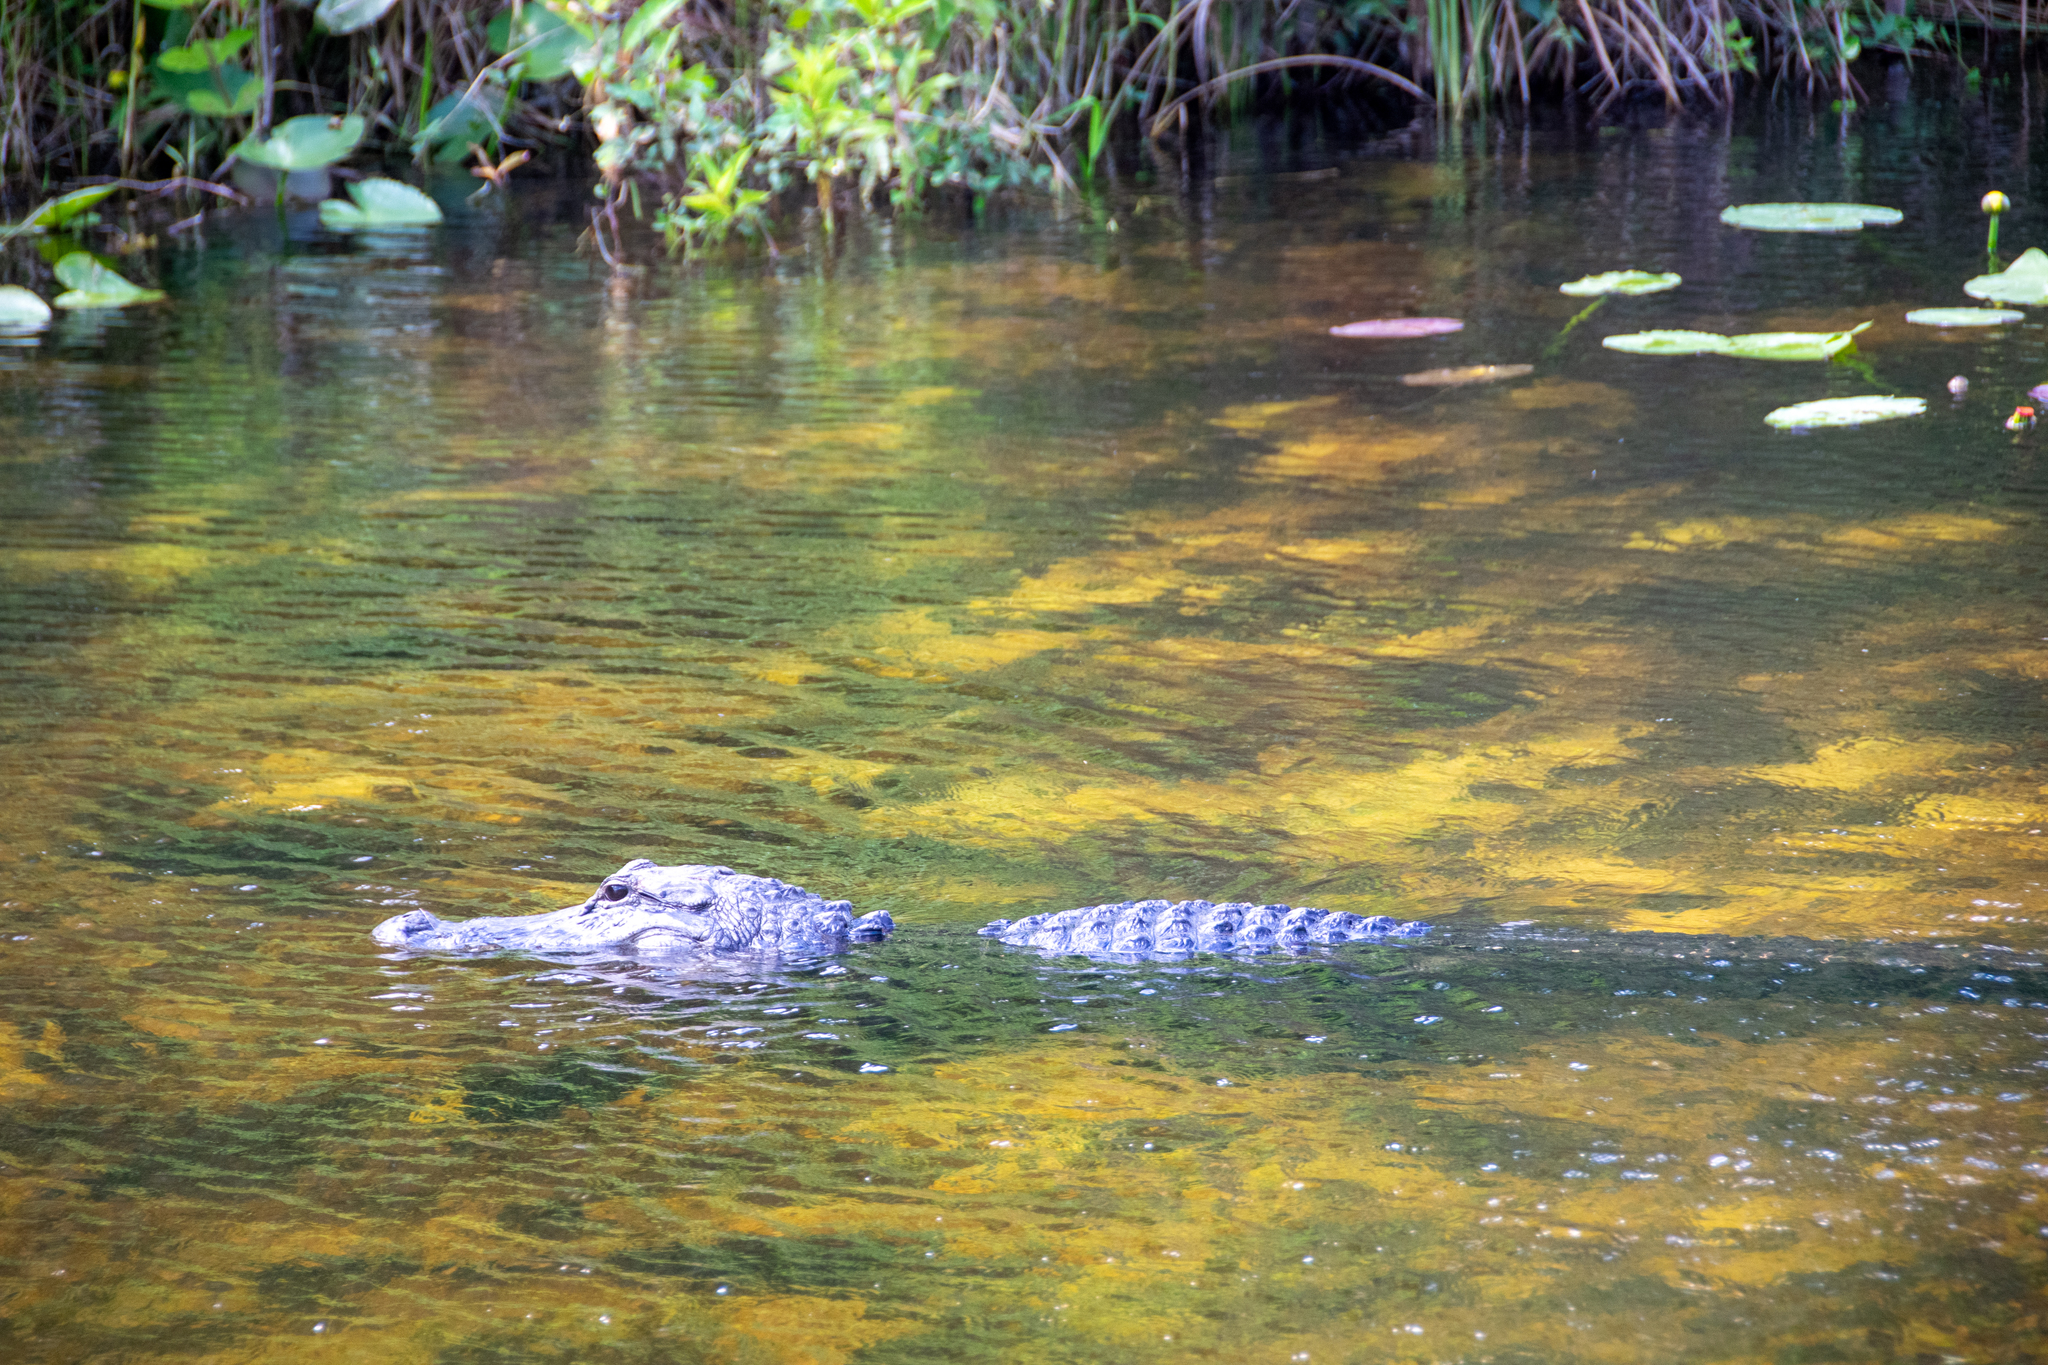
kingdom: Animalia
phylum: Chordata
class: Crocodylia
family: Alligatoridae
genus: Alligator
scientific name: Alligator mississippiensis
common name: American alligator
